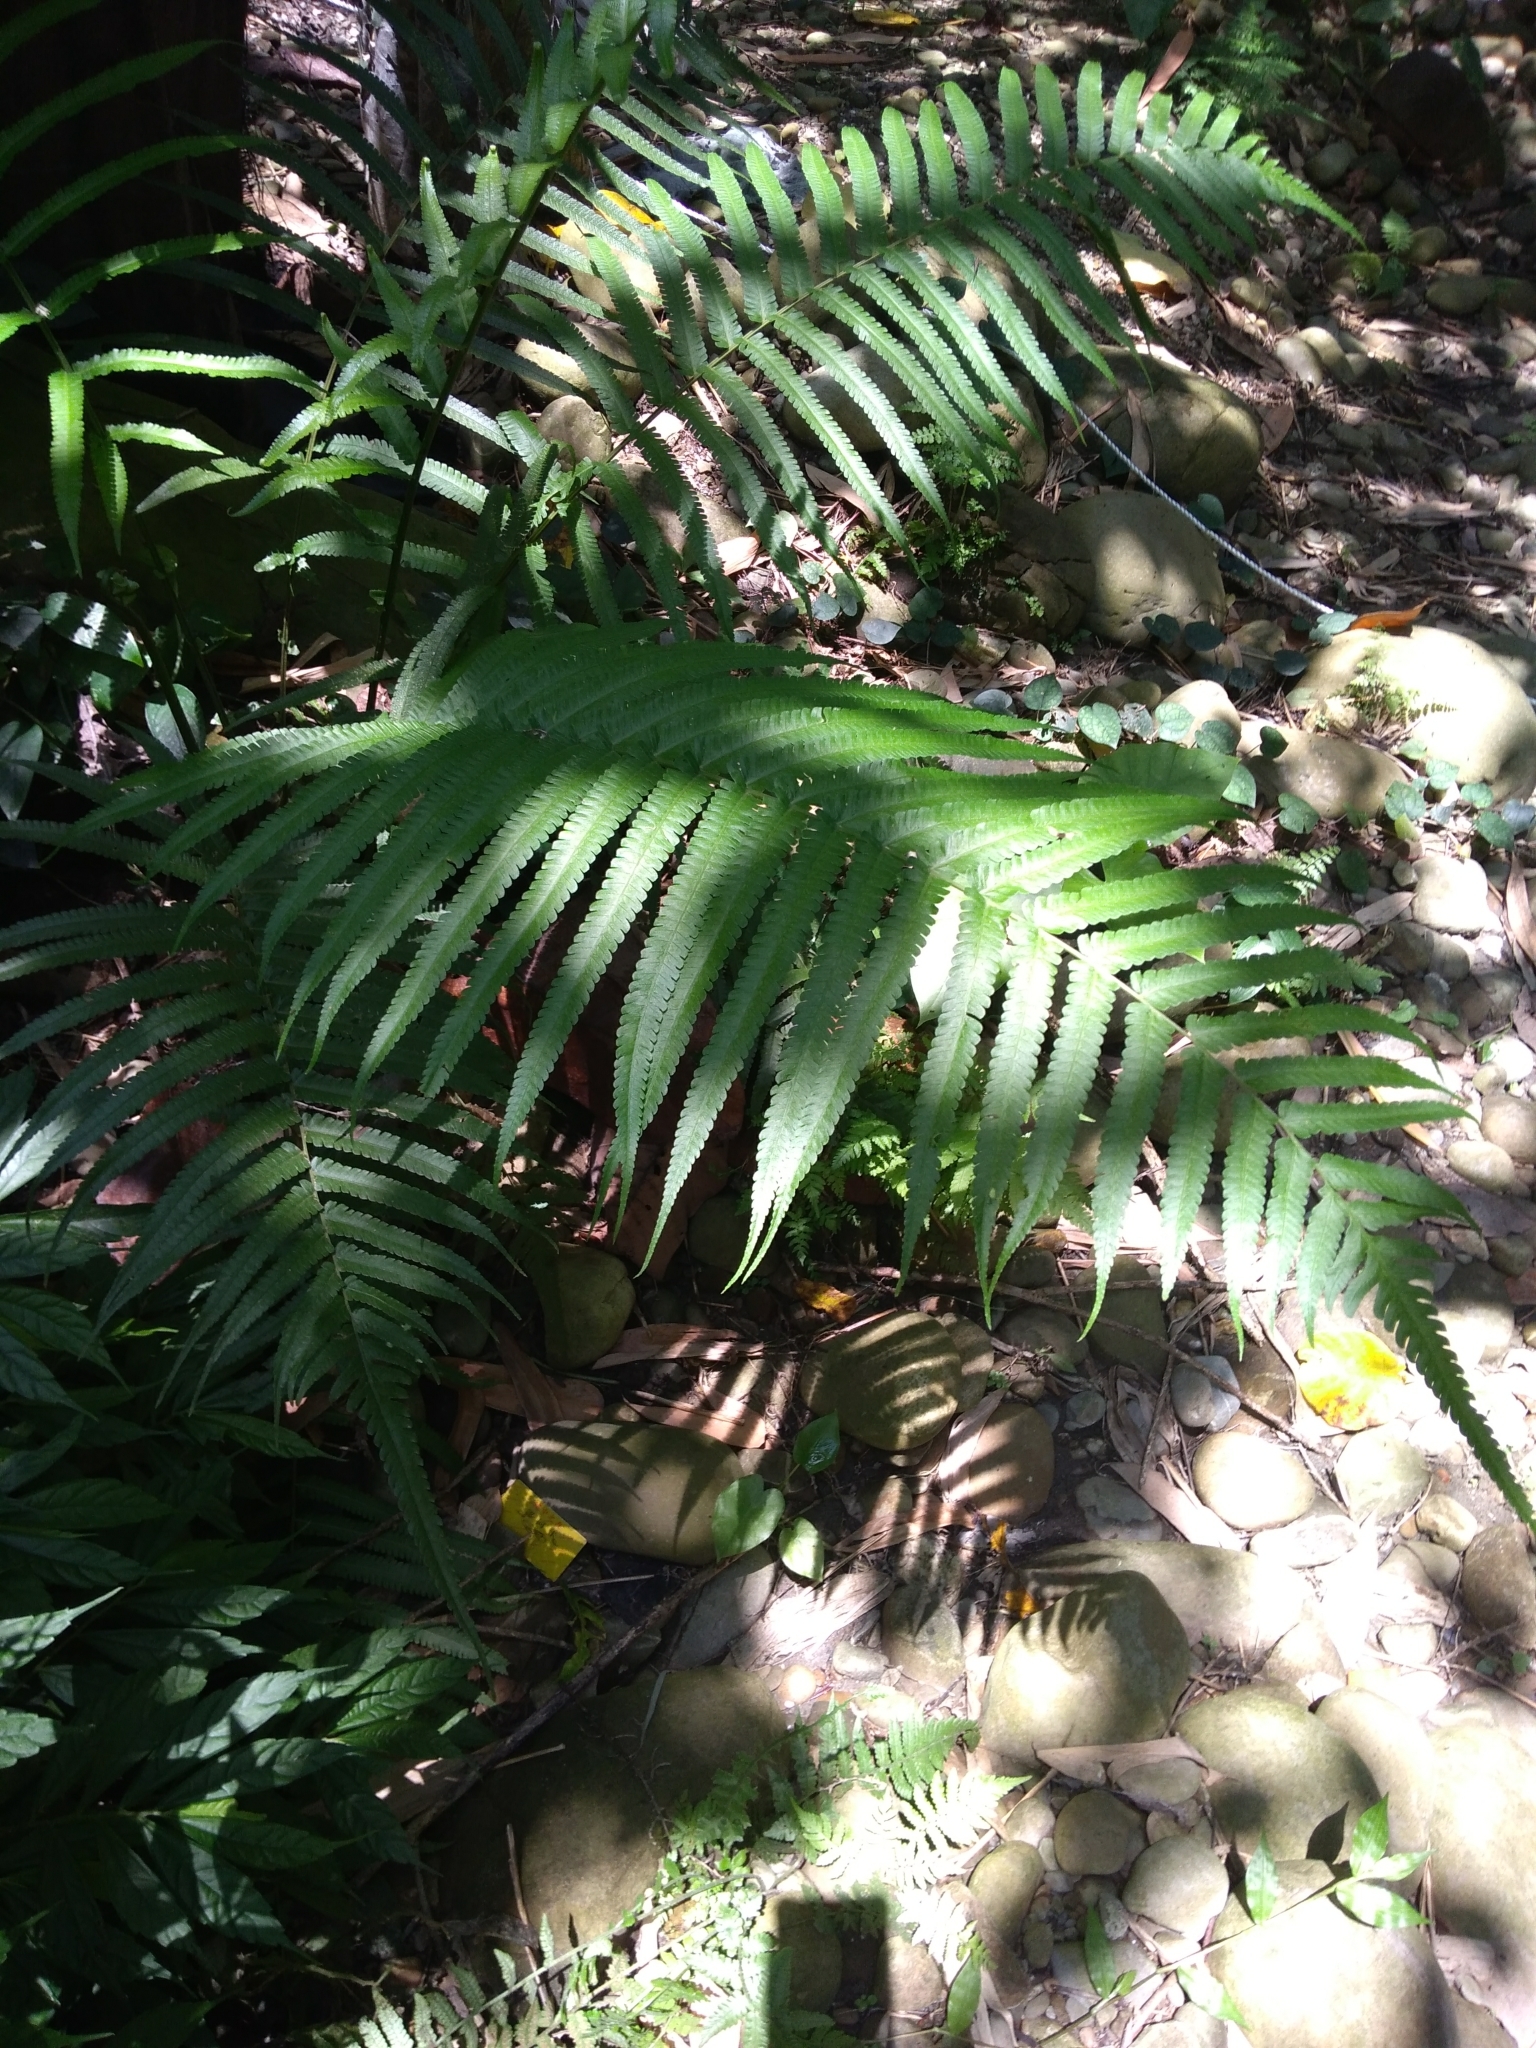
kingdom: Plantae
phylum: Tracheophyta
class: Polypodiopsida
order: Polypodiales
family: Thelypteridaceae
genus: Reholttumia
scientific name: Reholttumia truncata
